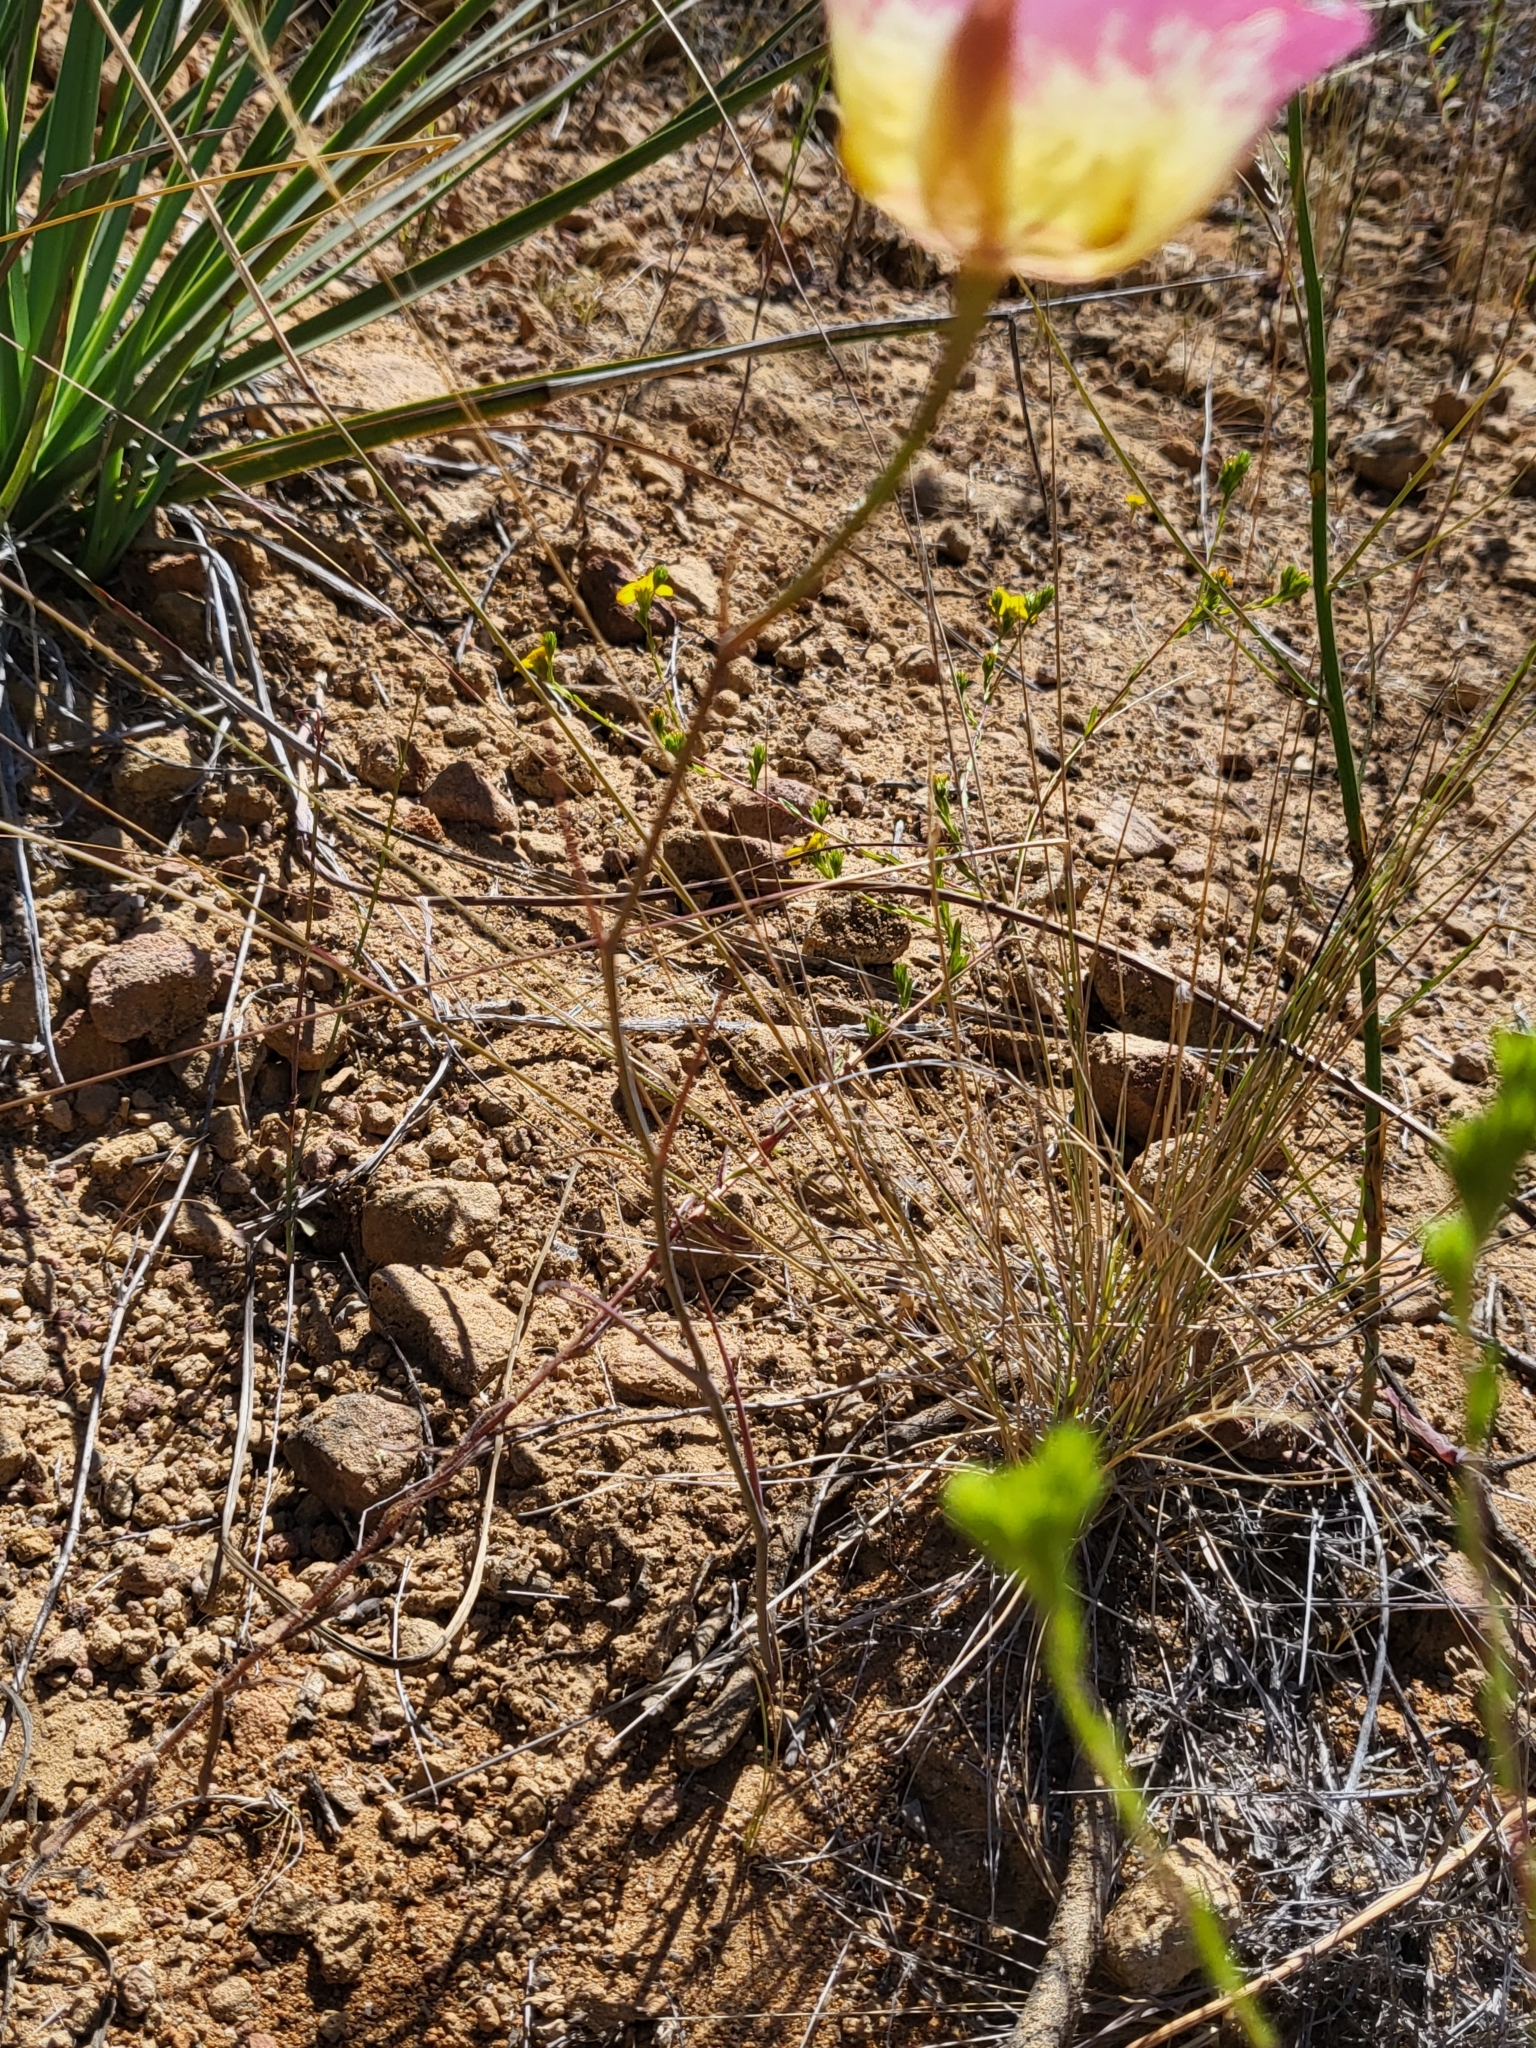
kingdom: Plantae
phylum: Tracheophyta
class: Liliopsida
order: Liliales
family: Liliaceae
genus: Calochortus
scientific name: Calochortus plummerae
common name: Plummer's mariposa-lily
